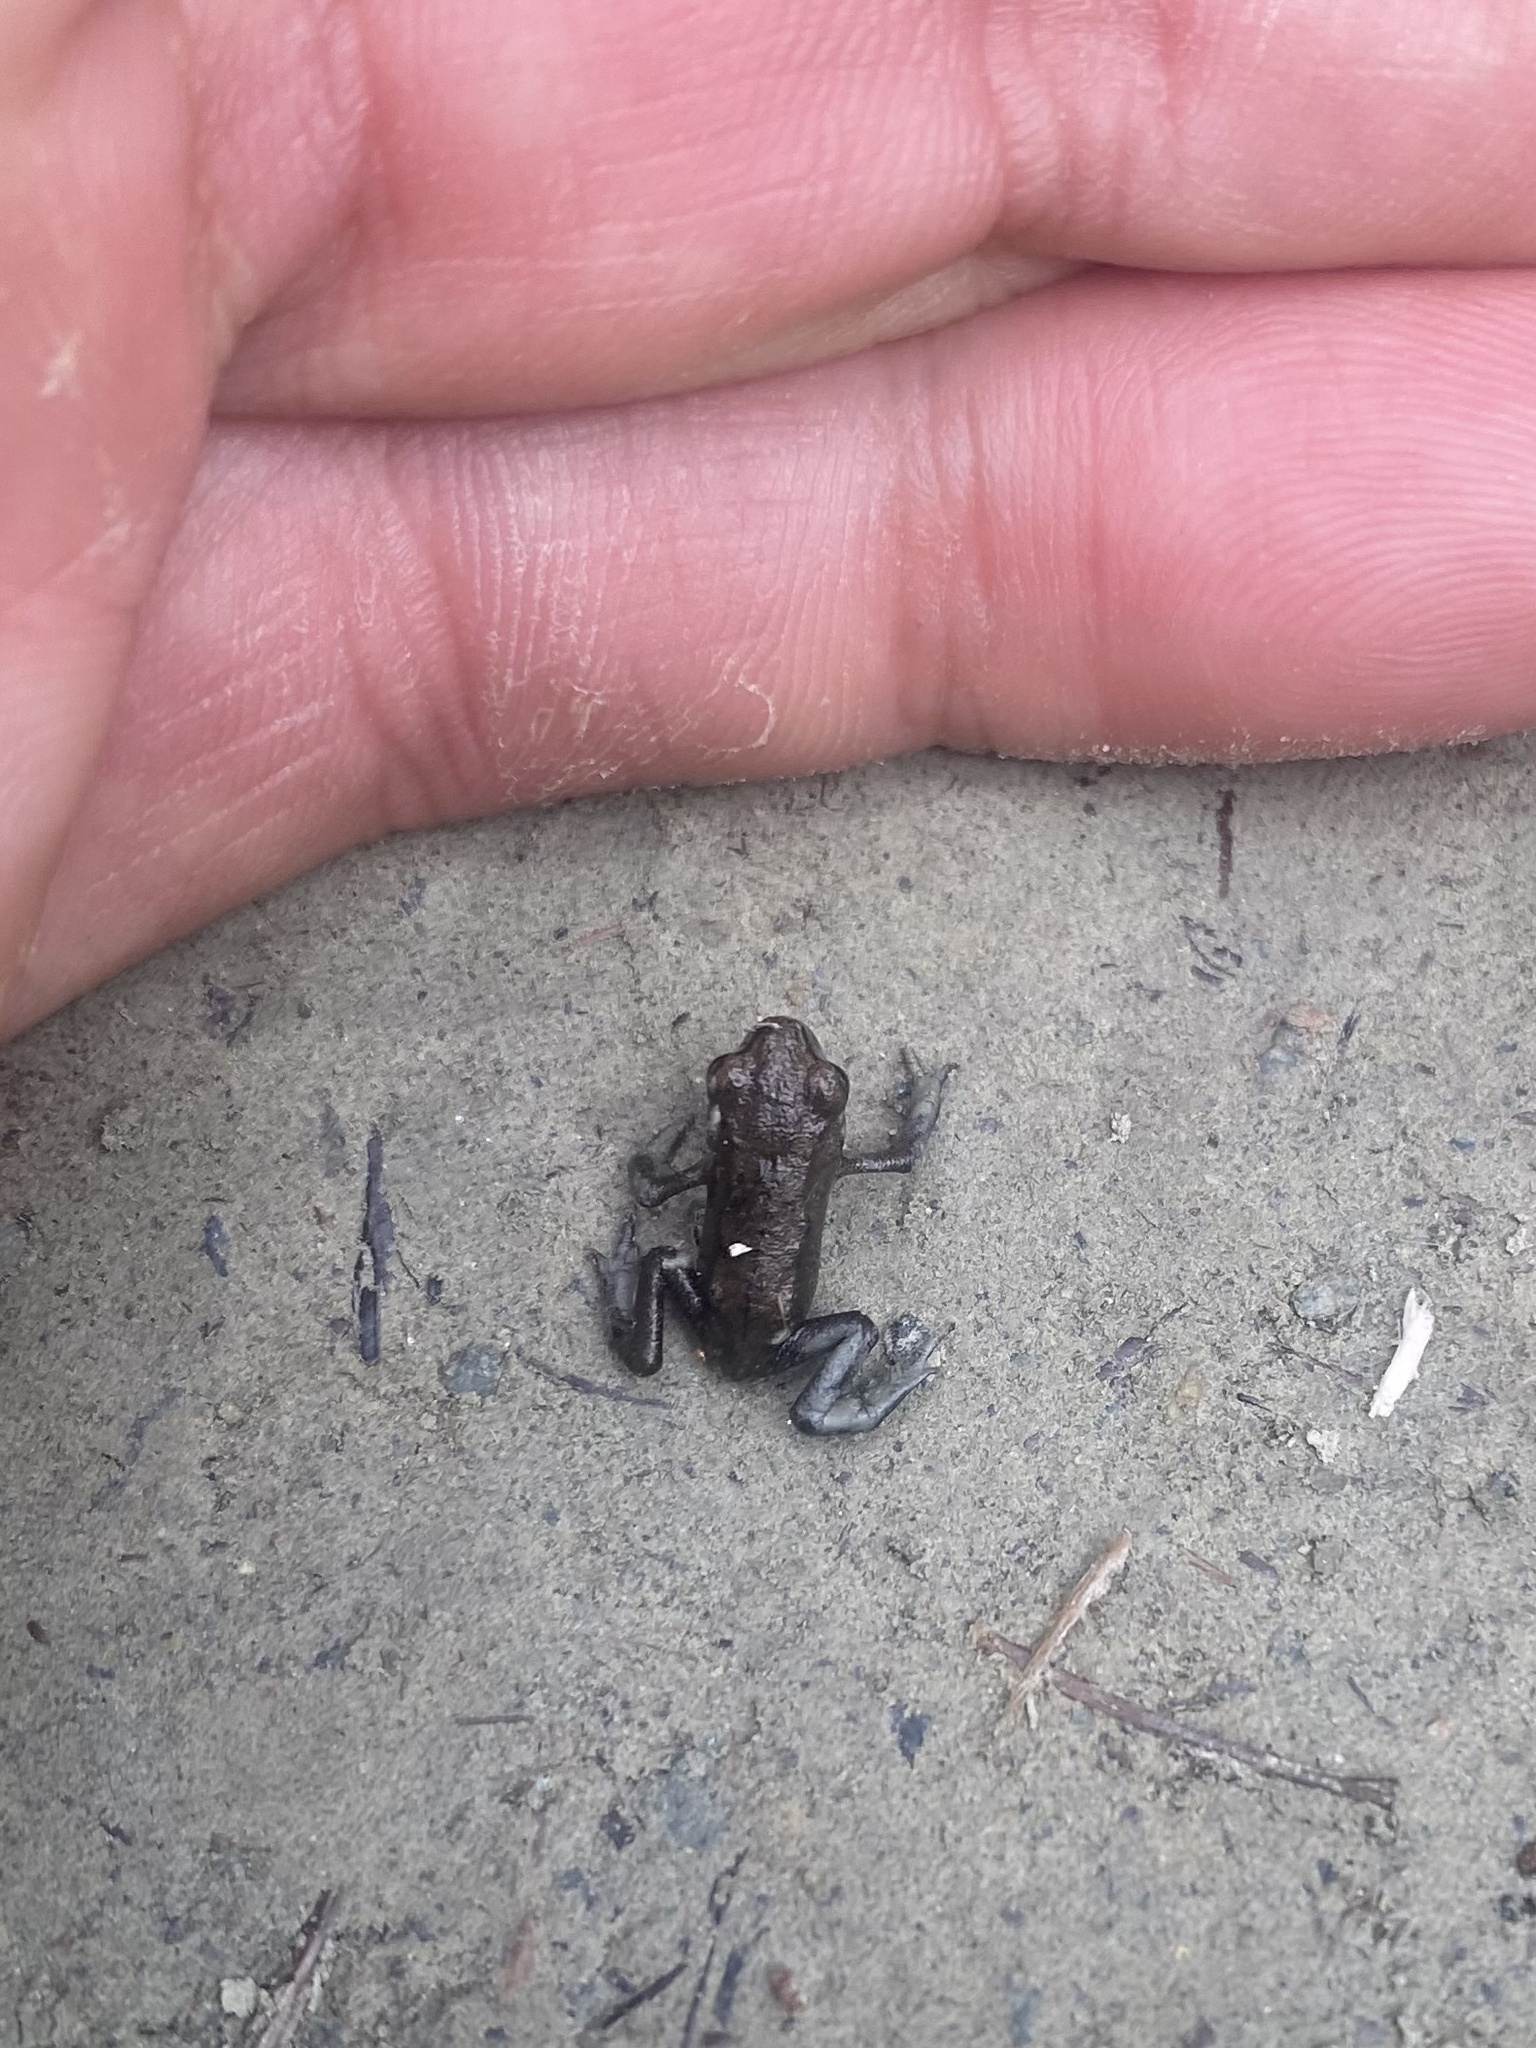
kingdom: Animalia
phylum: Chordata
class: Amphibia
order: Anura
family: Bufonidae
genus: Bufo
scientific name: Bufo gargarizans
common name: Asiatic toad
